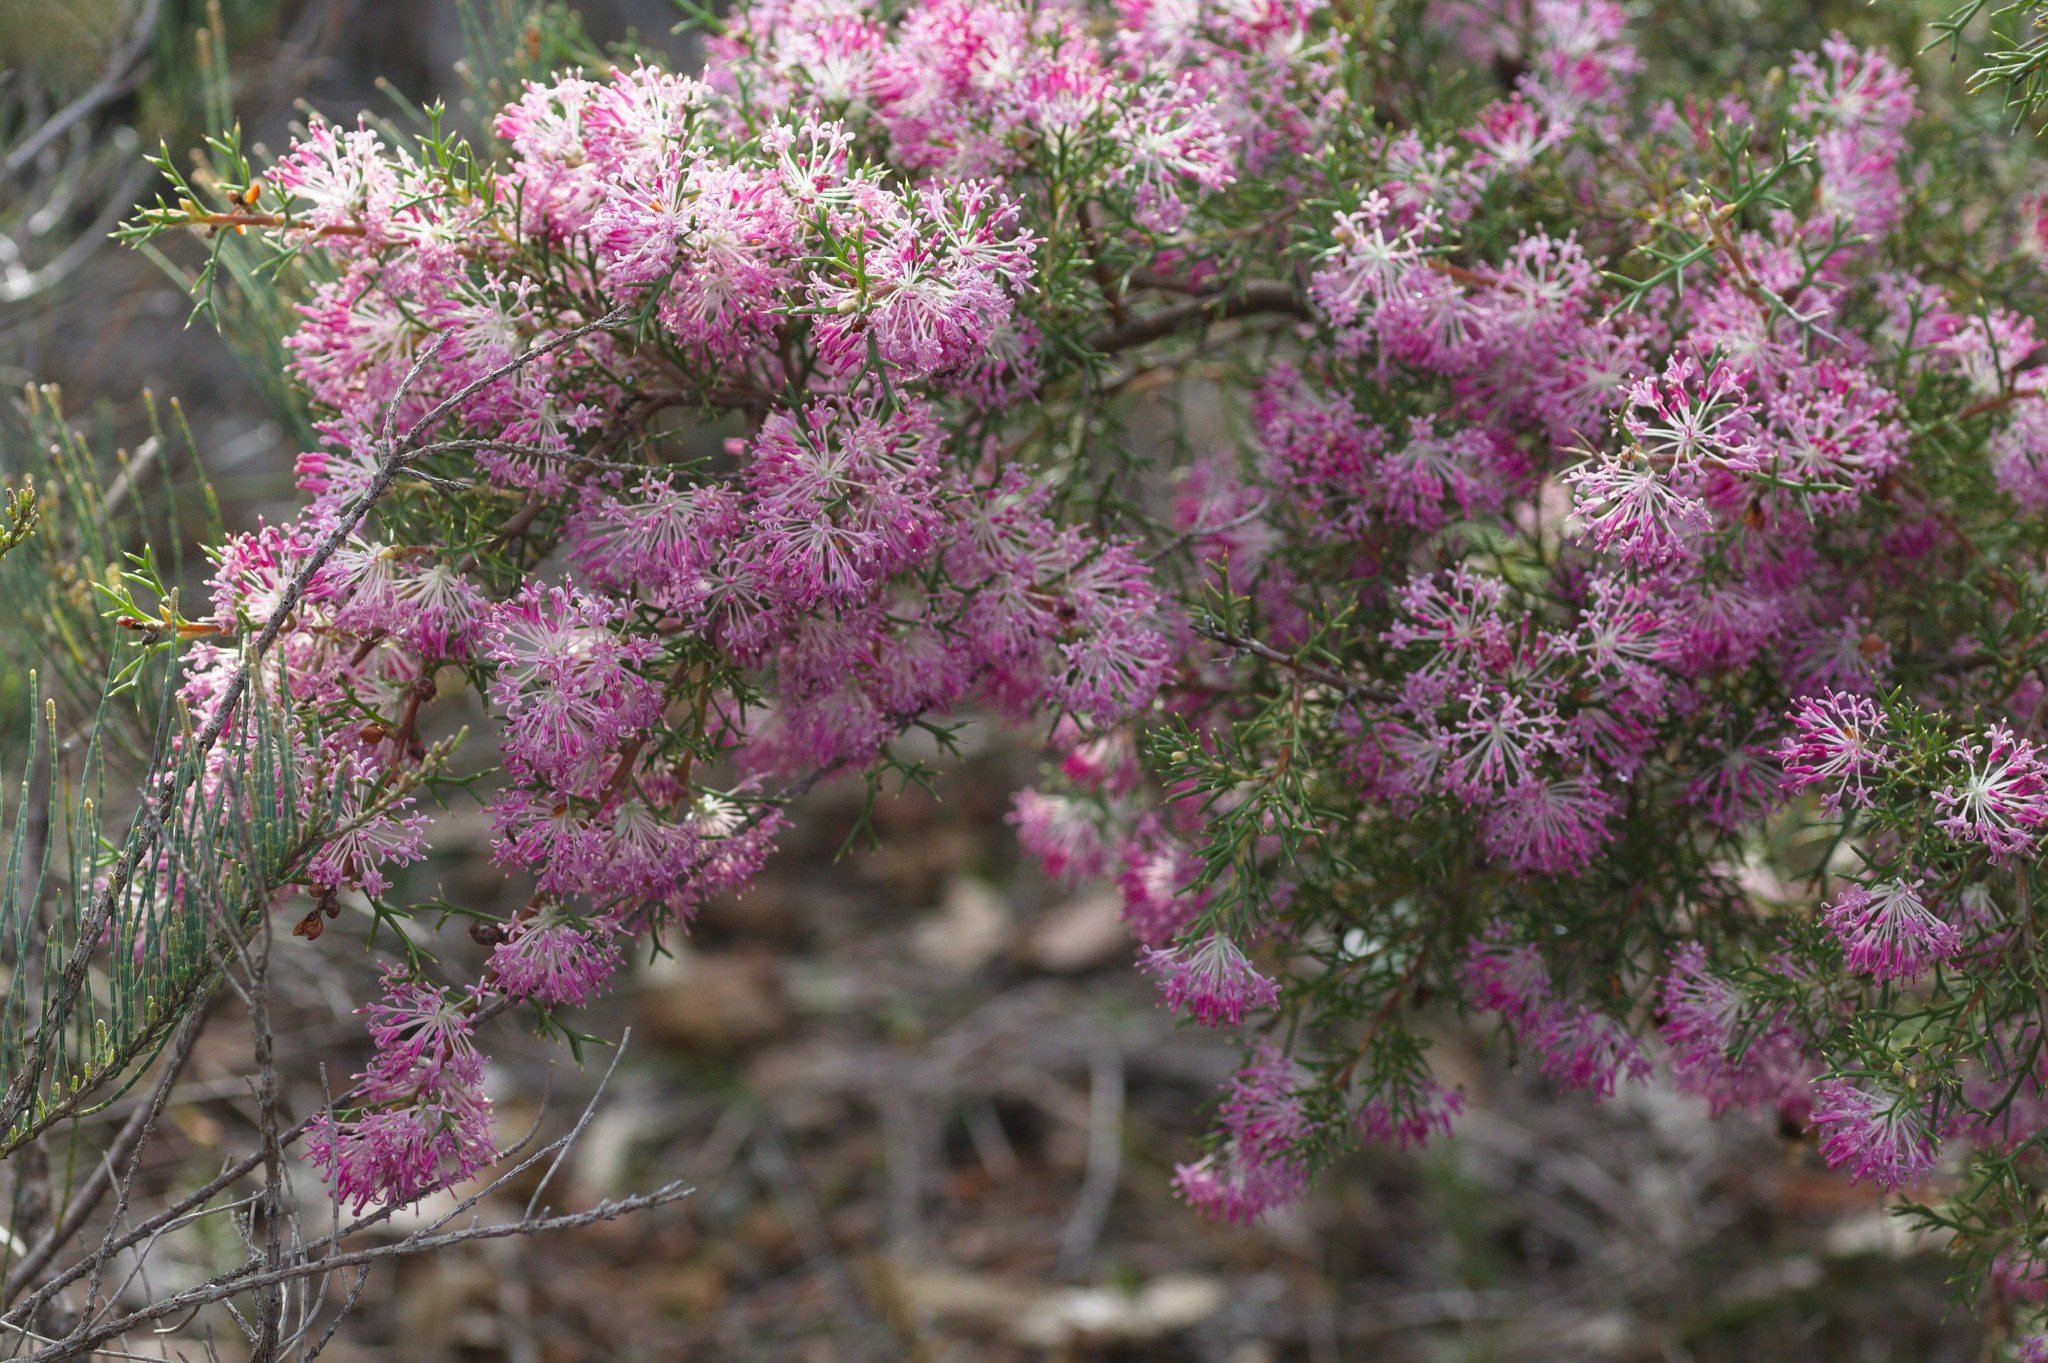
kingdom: Plantae
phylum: Tracheophyta
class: Magnoliopsida
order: Proteales
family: Proteaceae
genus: Hakea
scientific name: Hakea lissocarpha
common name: Honey bush
